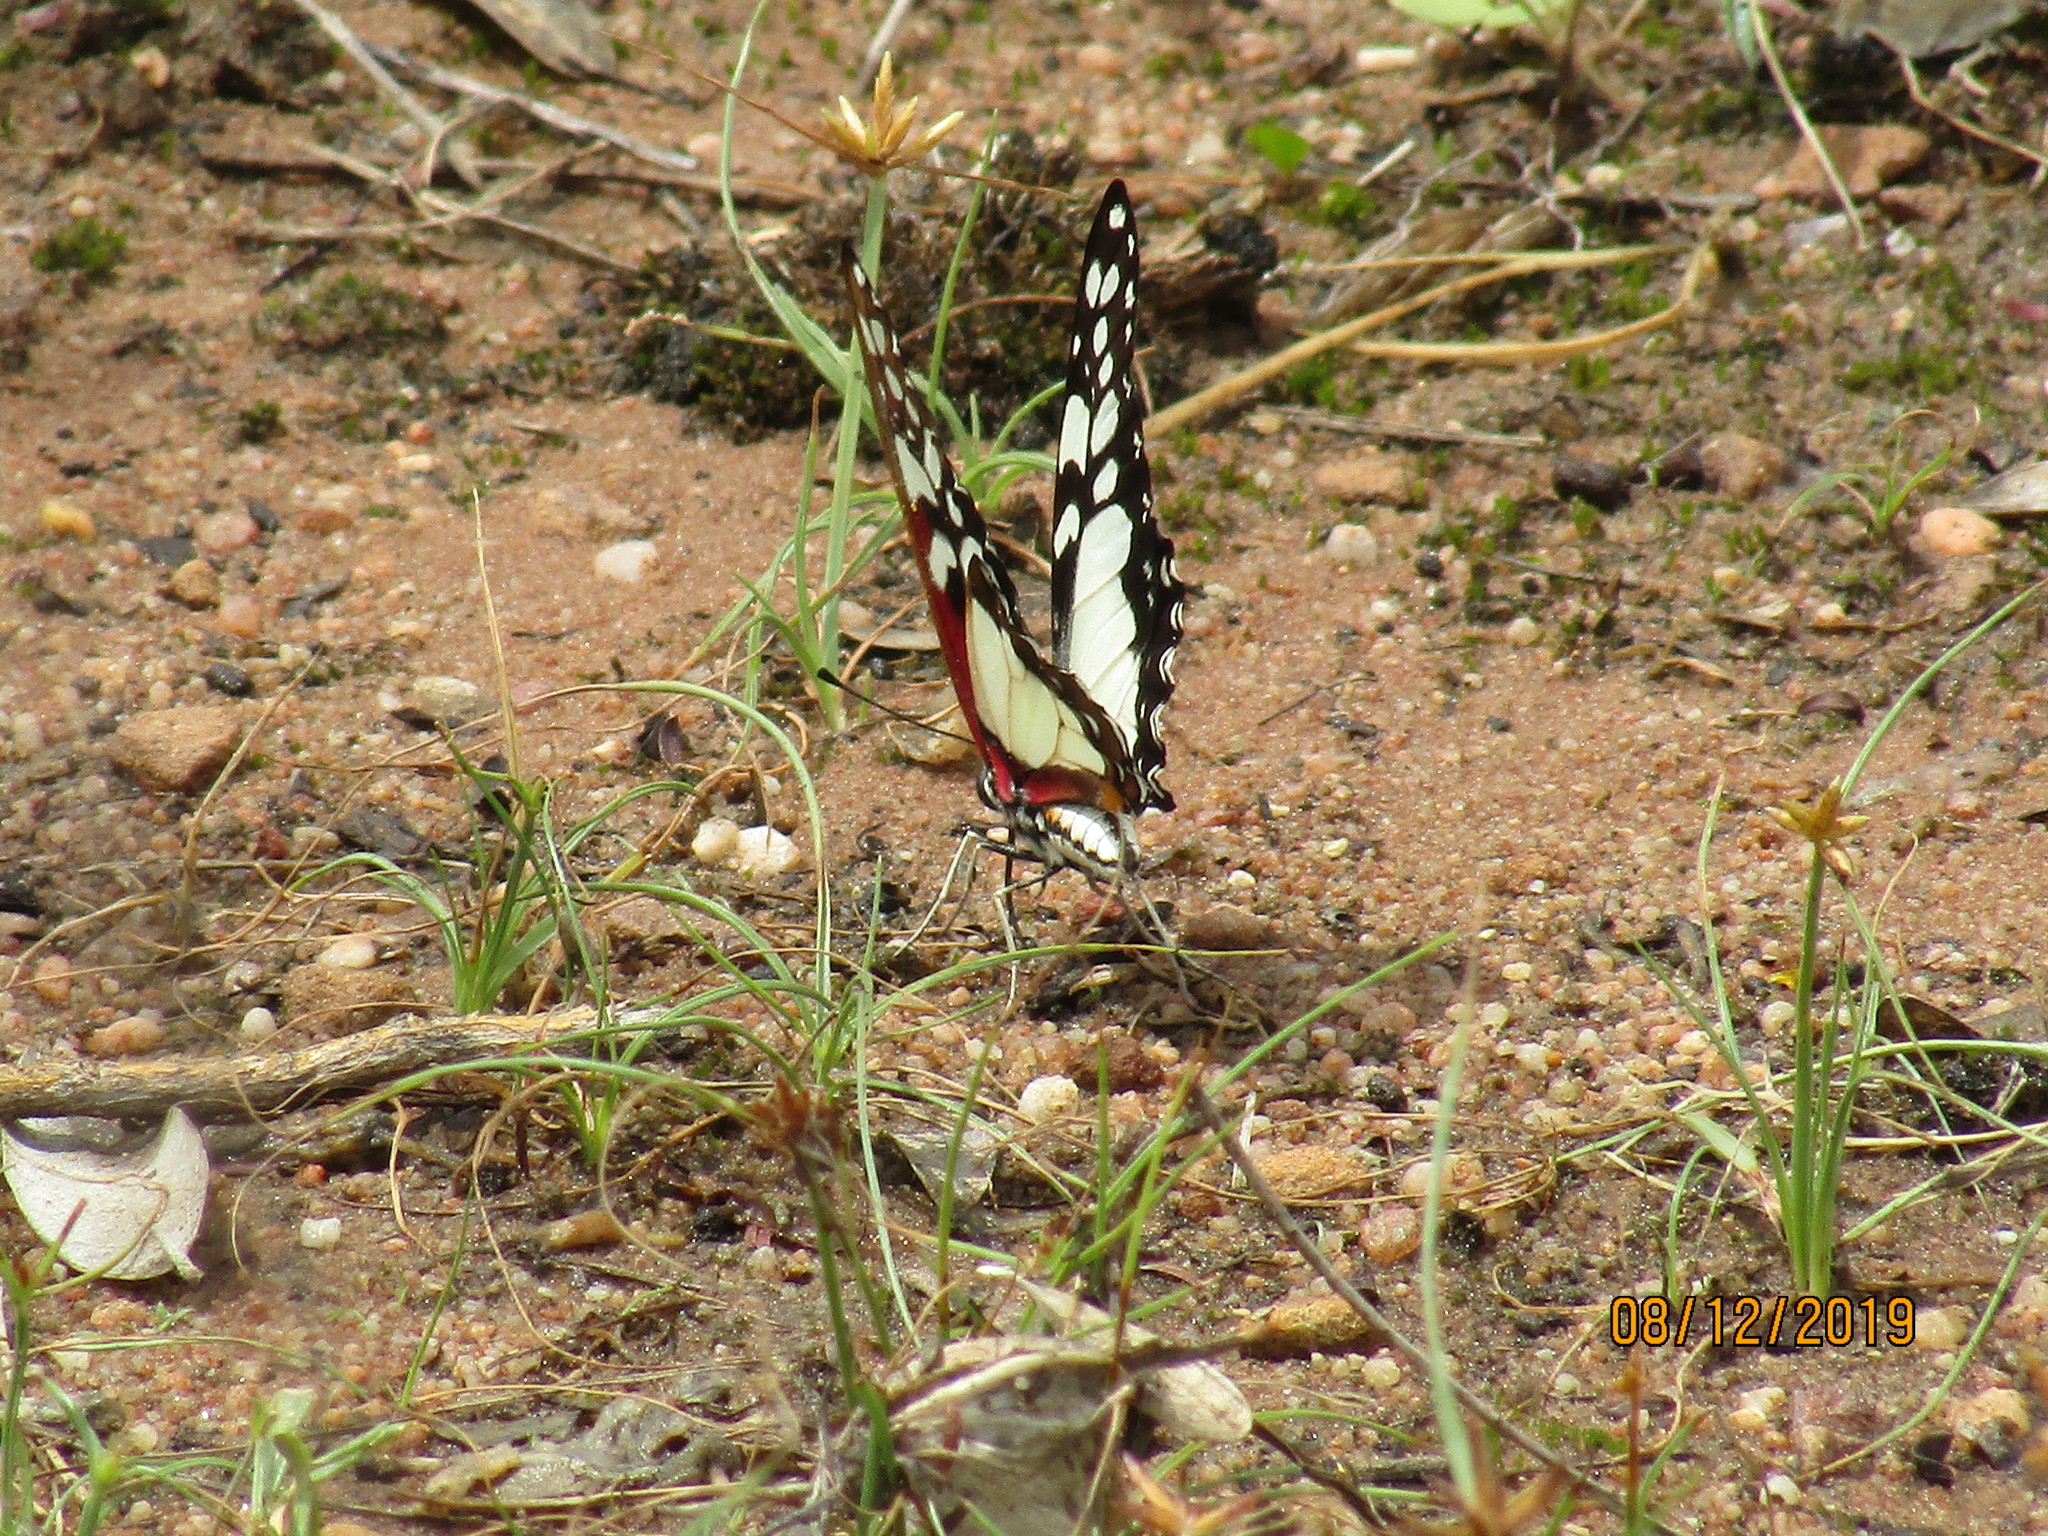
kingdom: Animalia
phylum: Arthropoda
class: Insecta
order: Lepidoptera
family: Papilionidae
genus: Graphium
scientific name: Graphium morania
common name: Small white-lady swordtail
